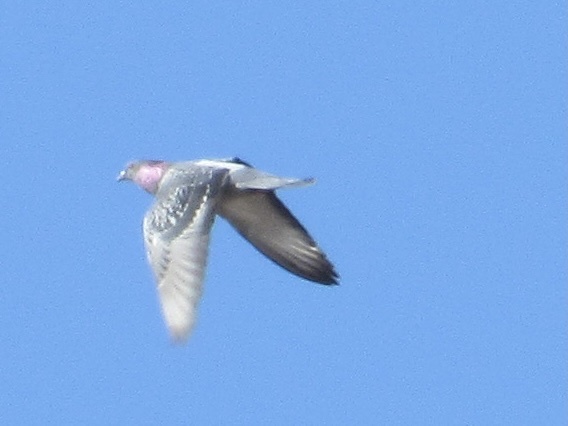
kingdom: Animalia
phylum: Chordata
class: Aves
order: Columbiformes
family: Columbidae
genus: Columba
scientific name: Columba livia
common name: Rock pigeon
